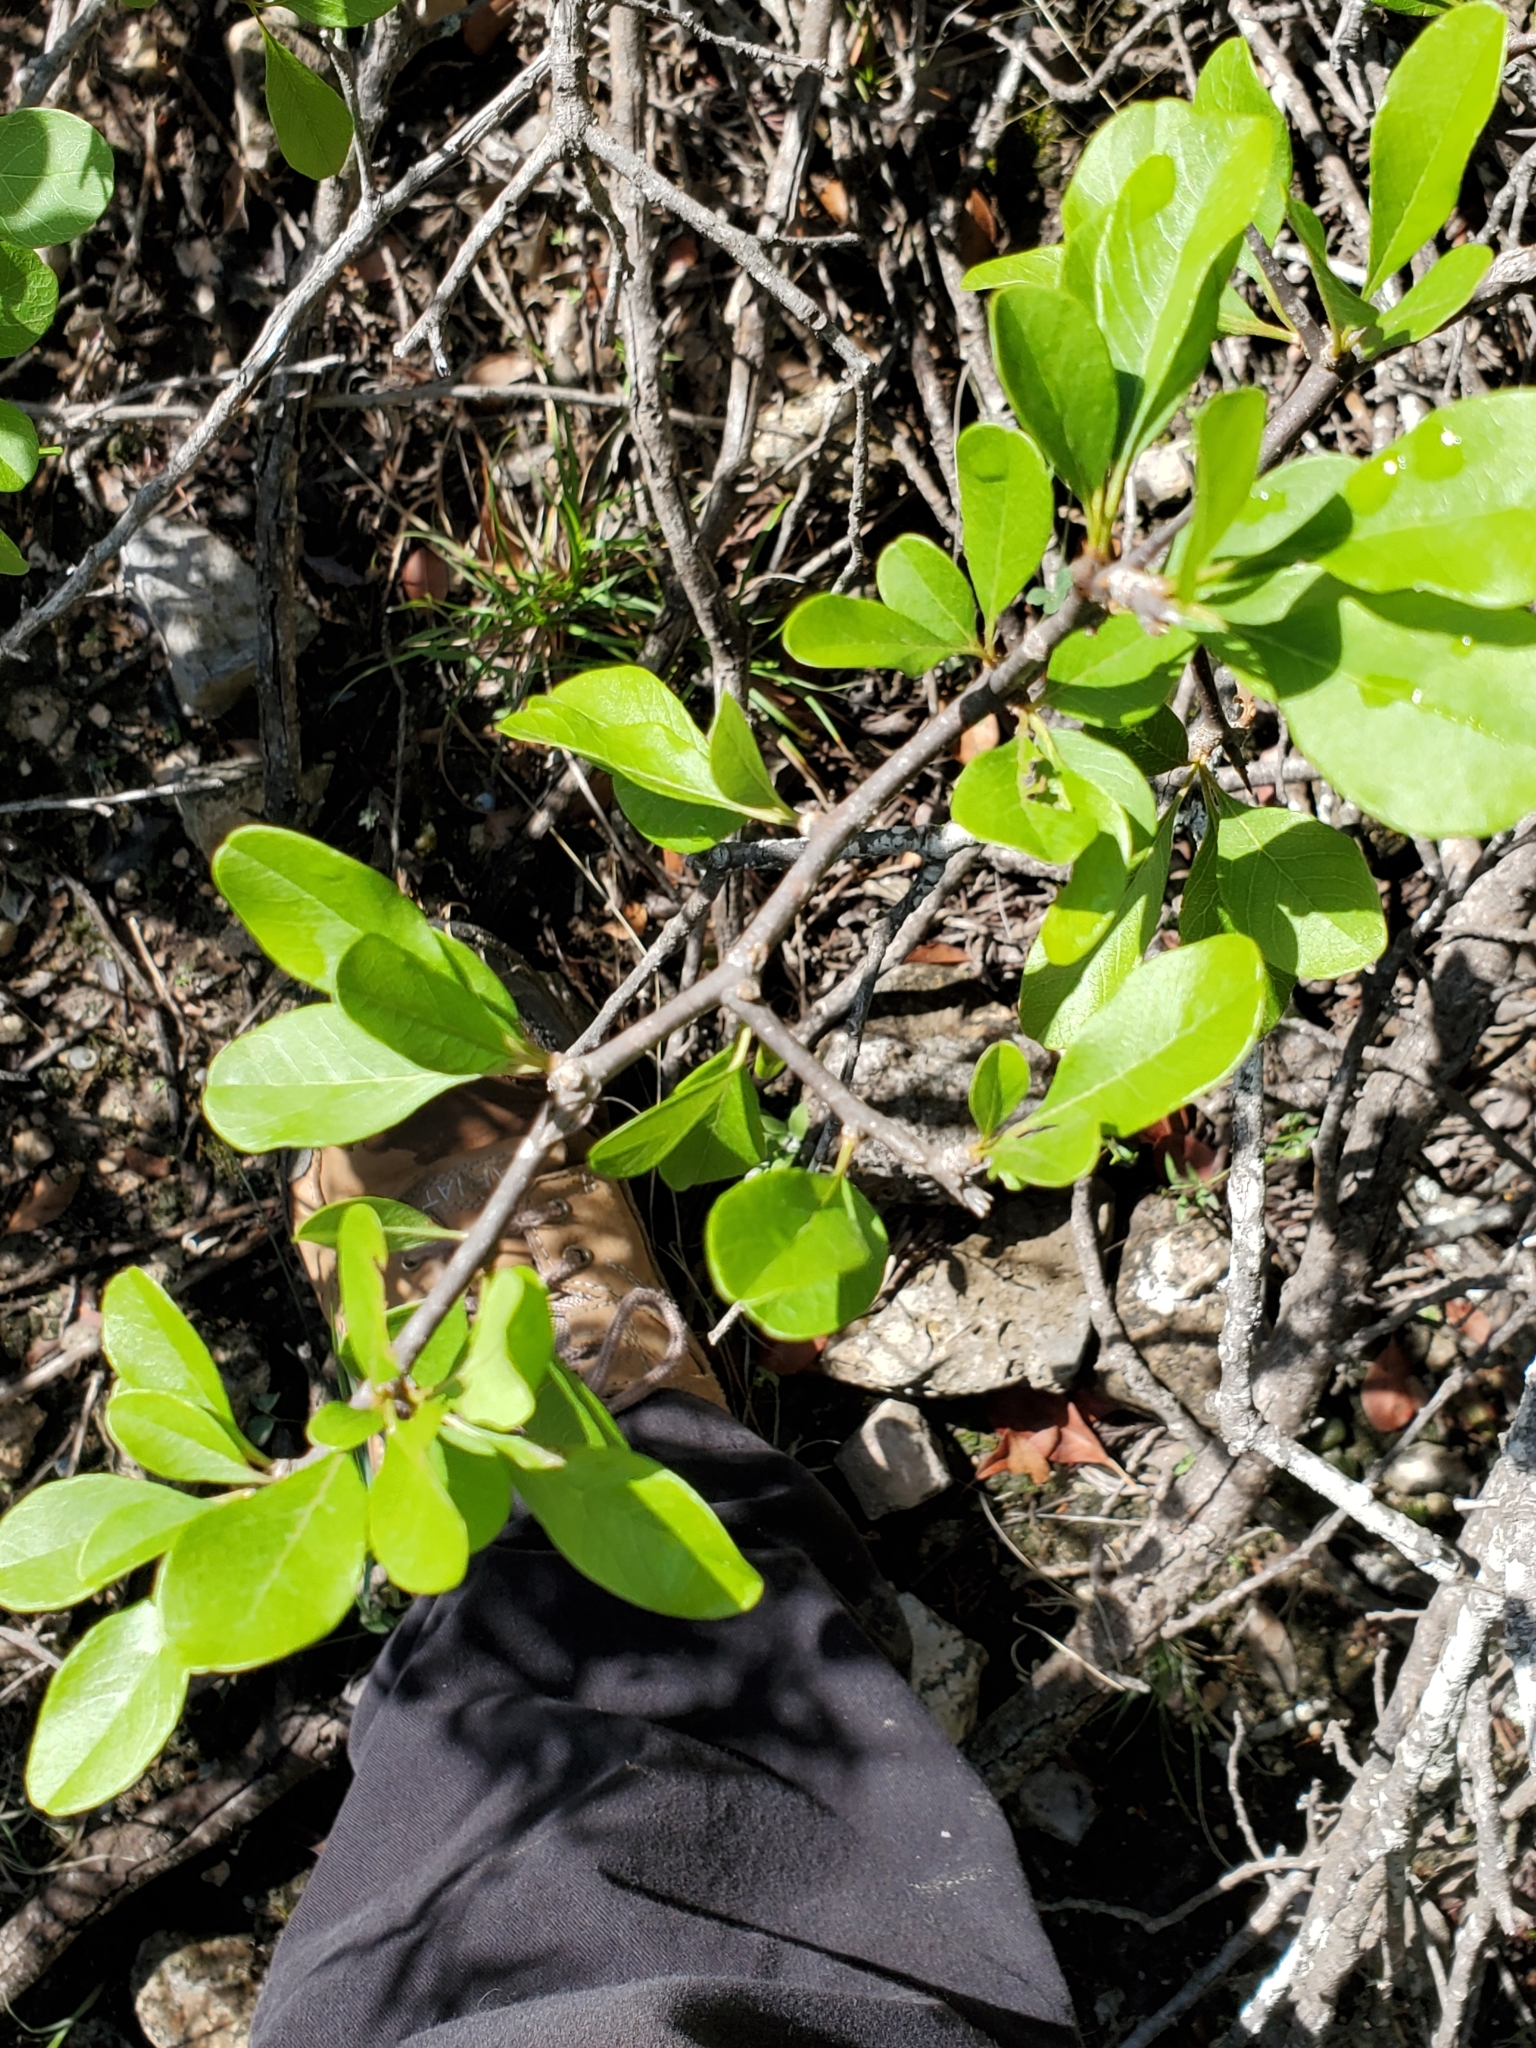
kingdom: Plantae
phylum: Tracheophyta
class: Magnoliopsida
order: Ericales
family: Sapotaceae
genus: Sideroxylon
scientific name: Sideroxylon lanuginosum
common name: Chittamwood
